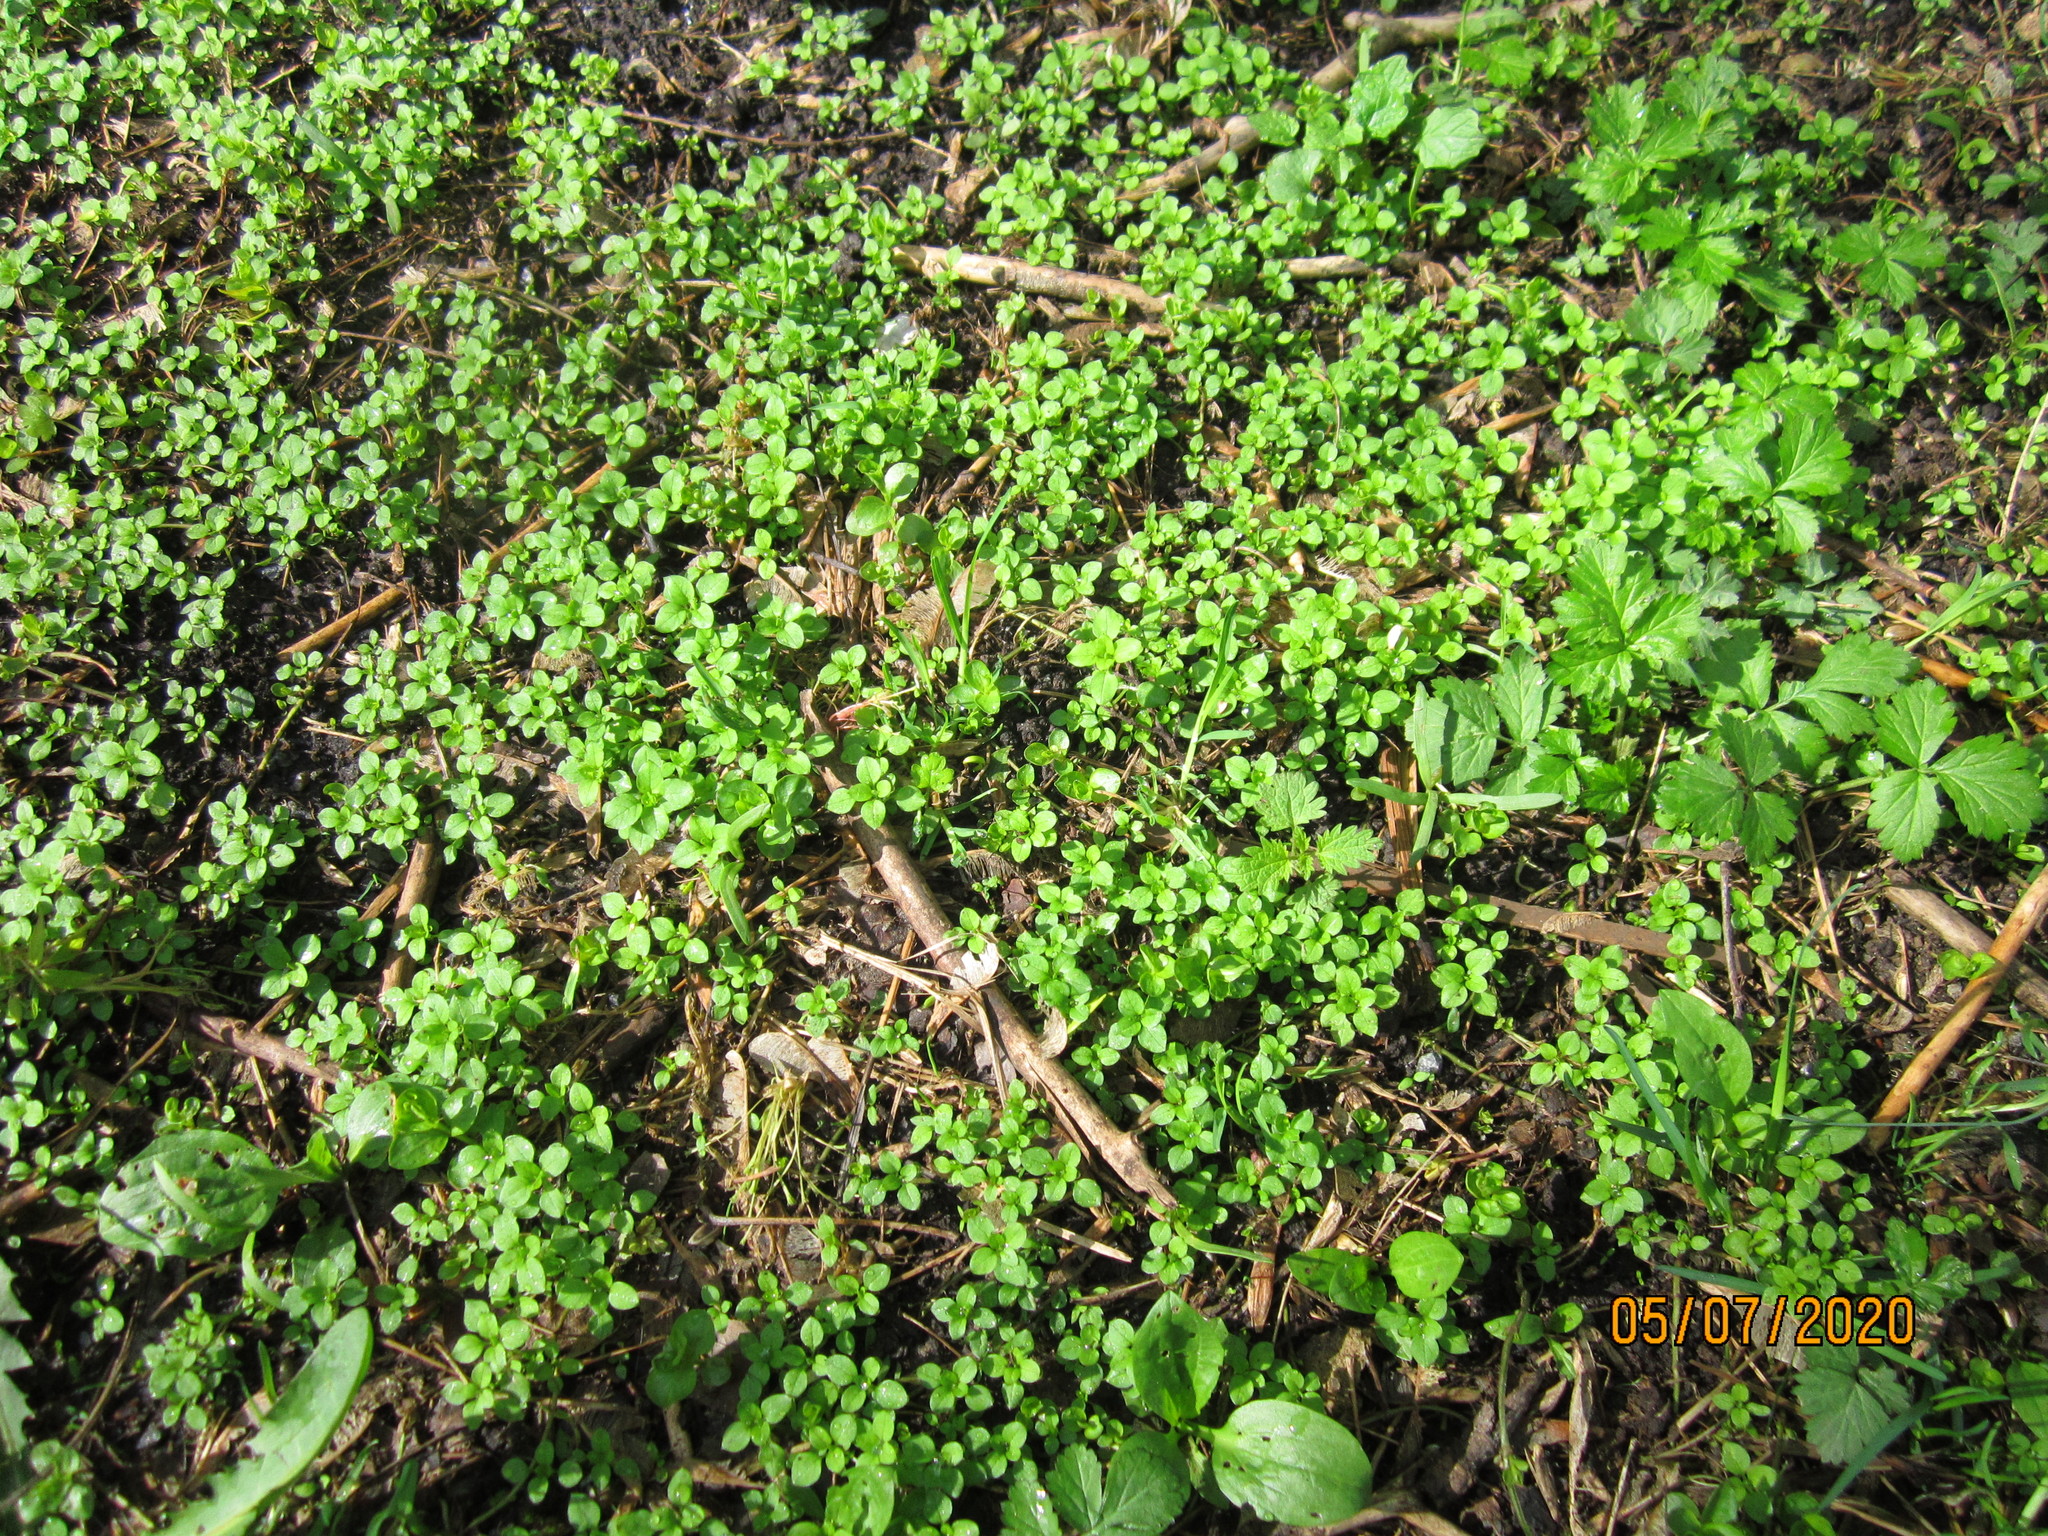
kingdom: Plantae
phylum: Tracheophyta
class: Magnoliopsida
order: Caryophyllales
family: Caryophyllaceae
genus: Stellaria
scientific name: Stellaria media
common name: Common chickweed
